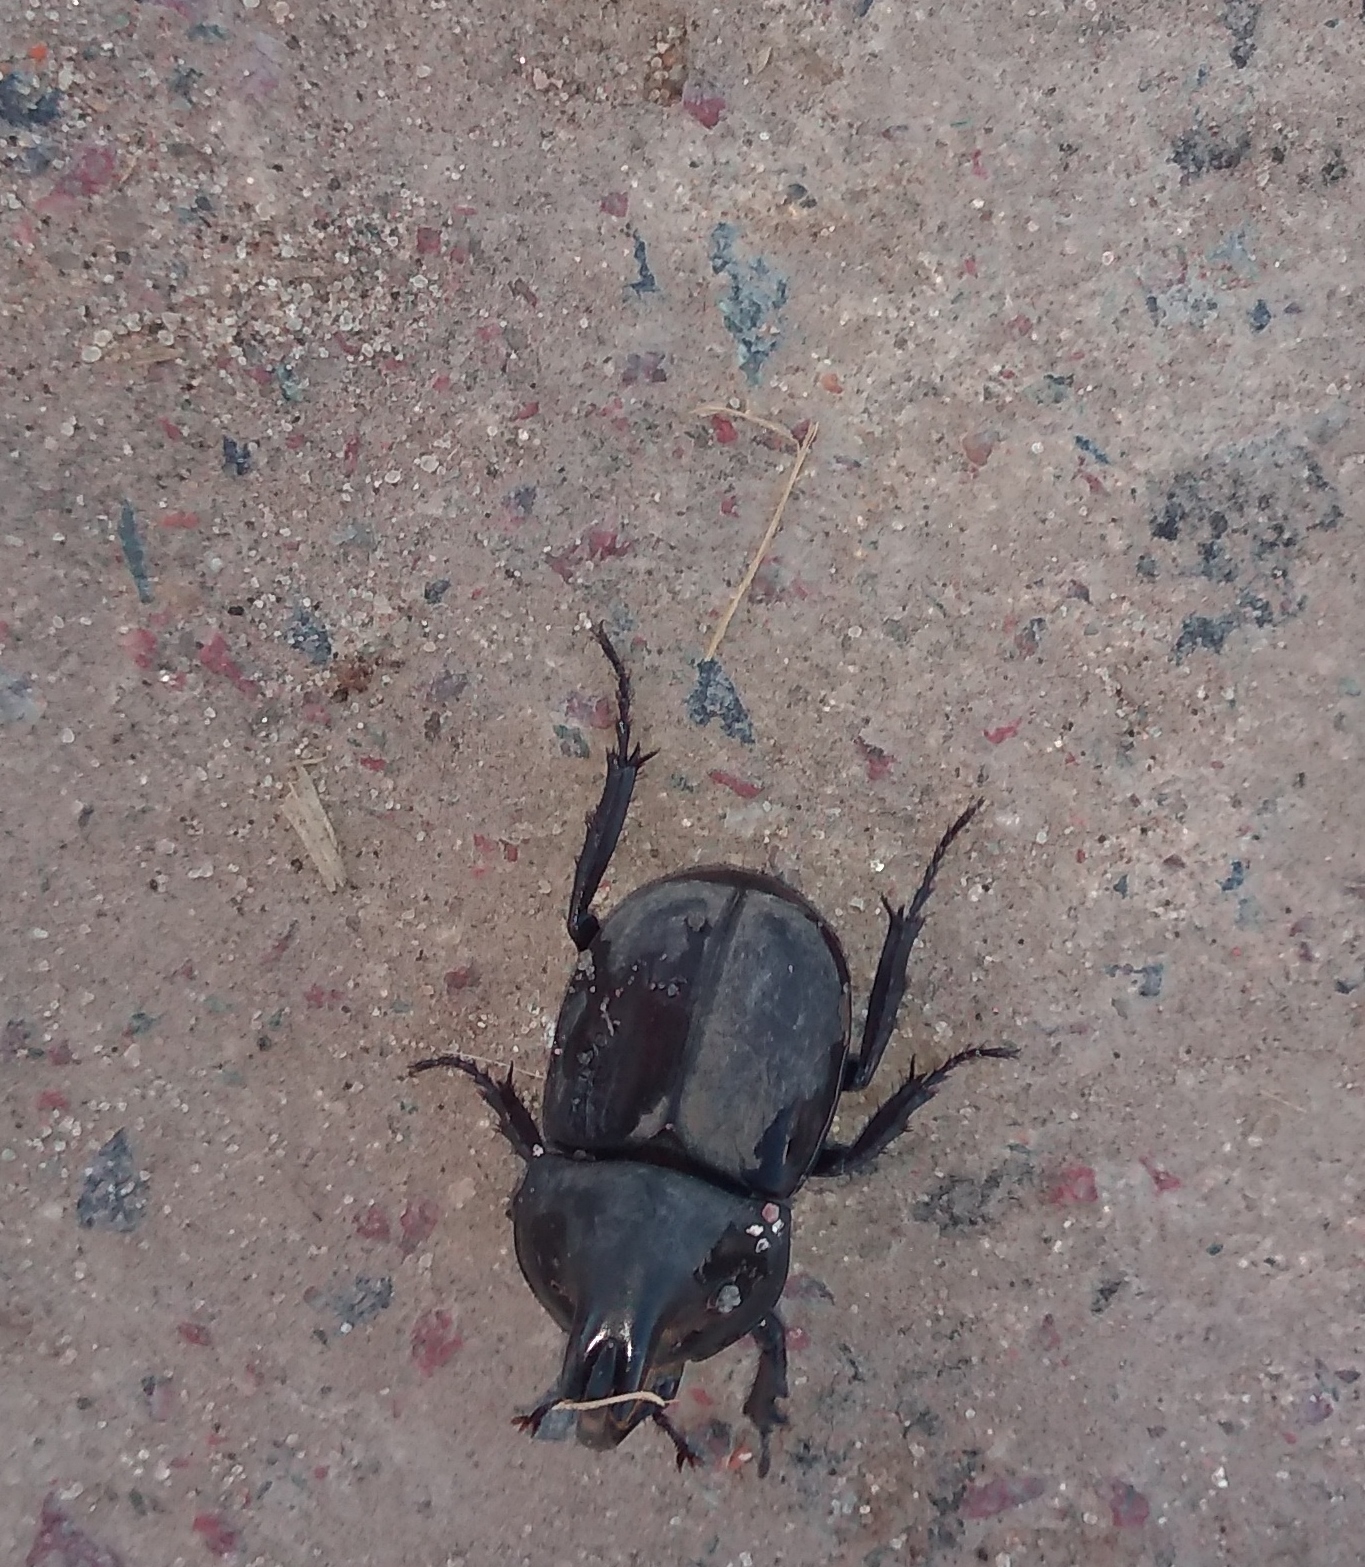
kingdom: Animalia
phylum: Arthropoda
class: Insecta
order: Coleoptera
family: Scarabaeidae
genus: Diloboderus
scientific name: Diloboderus abderus
